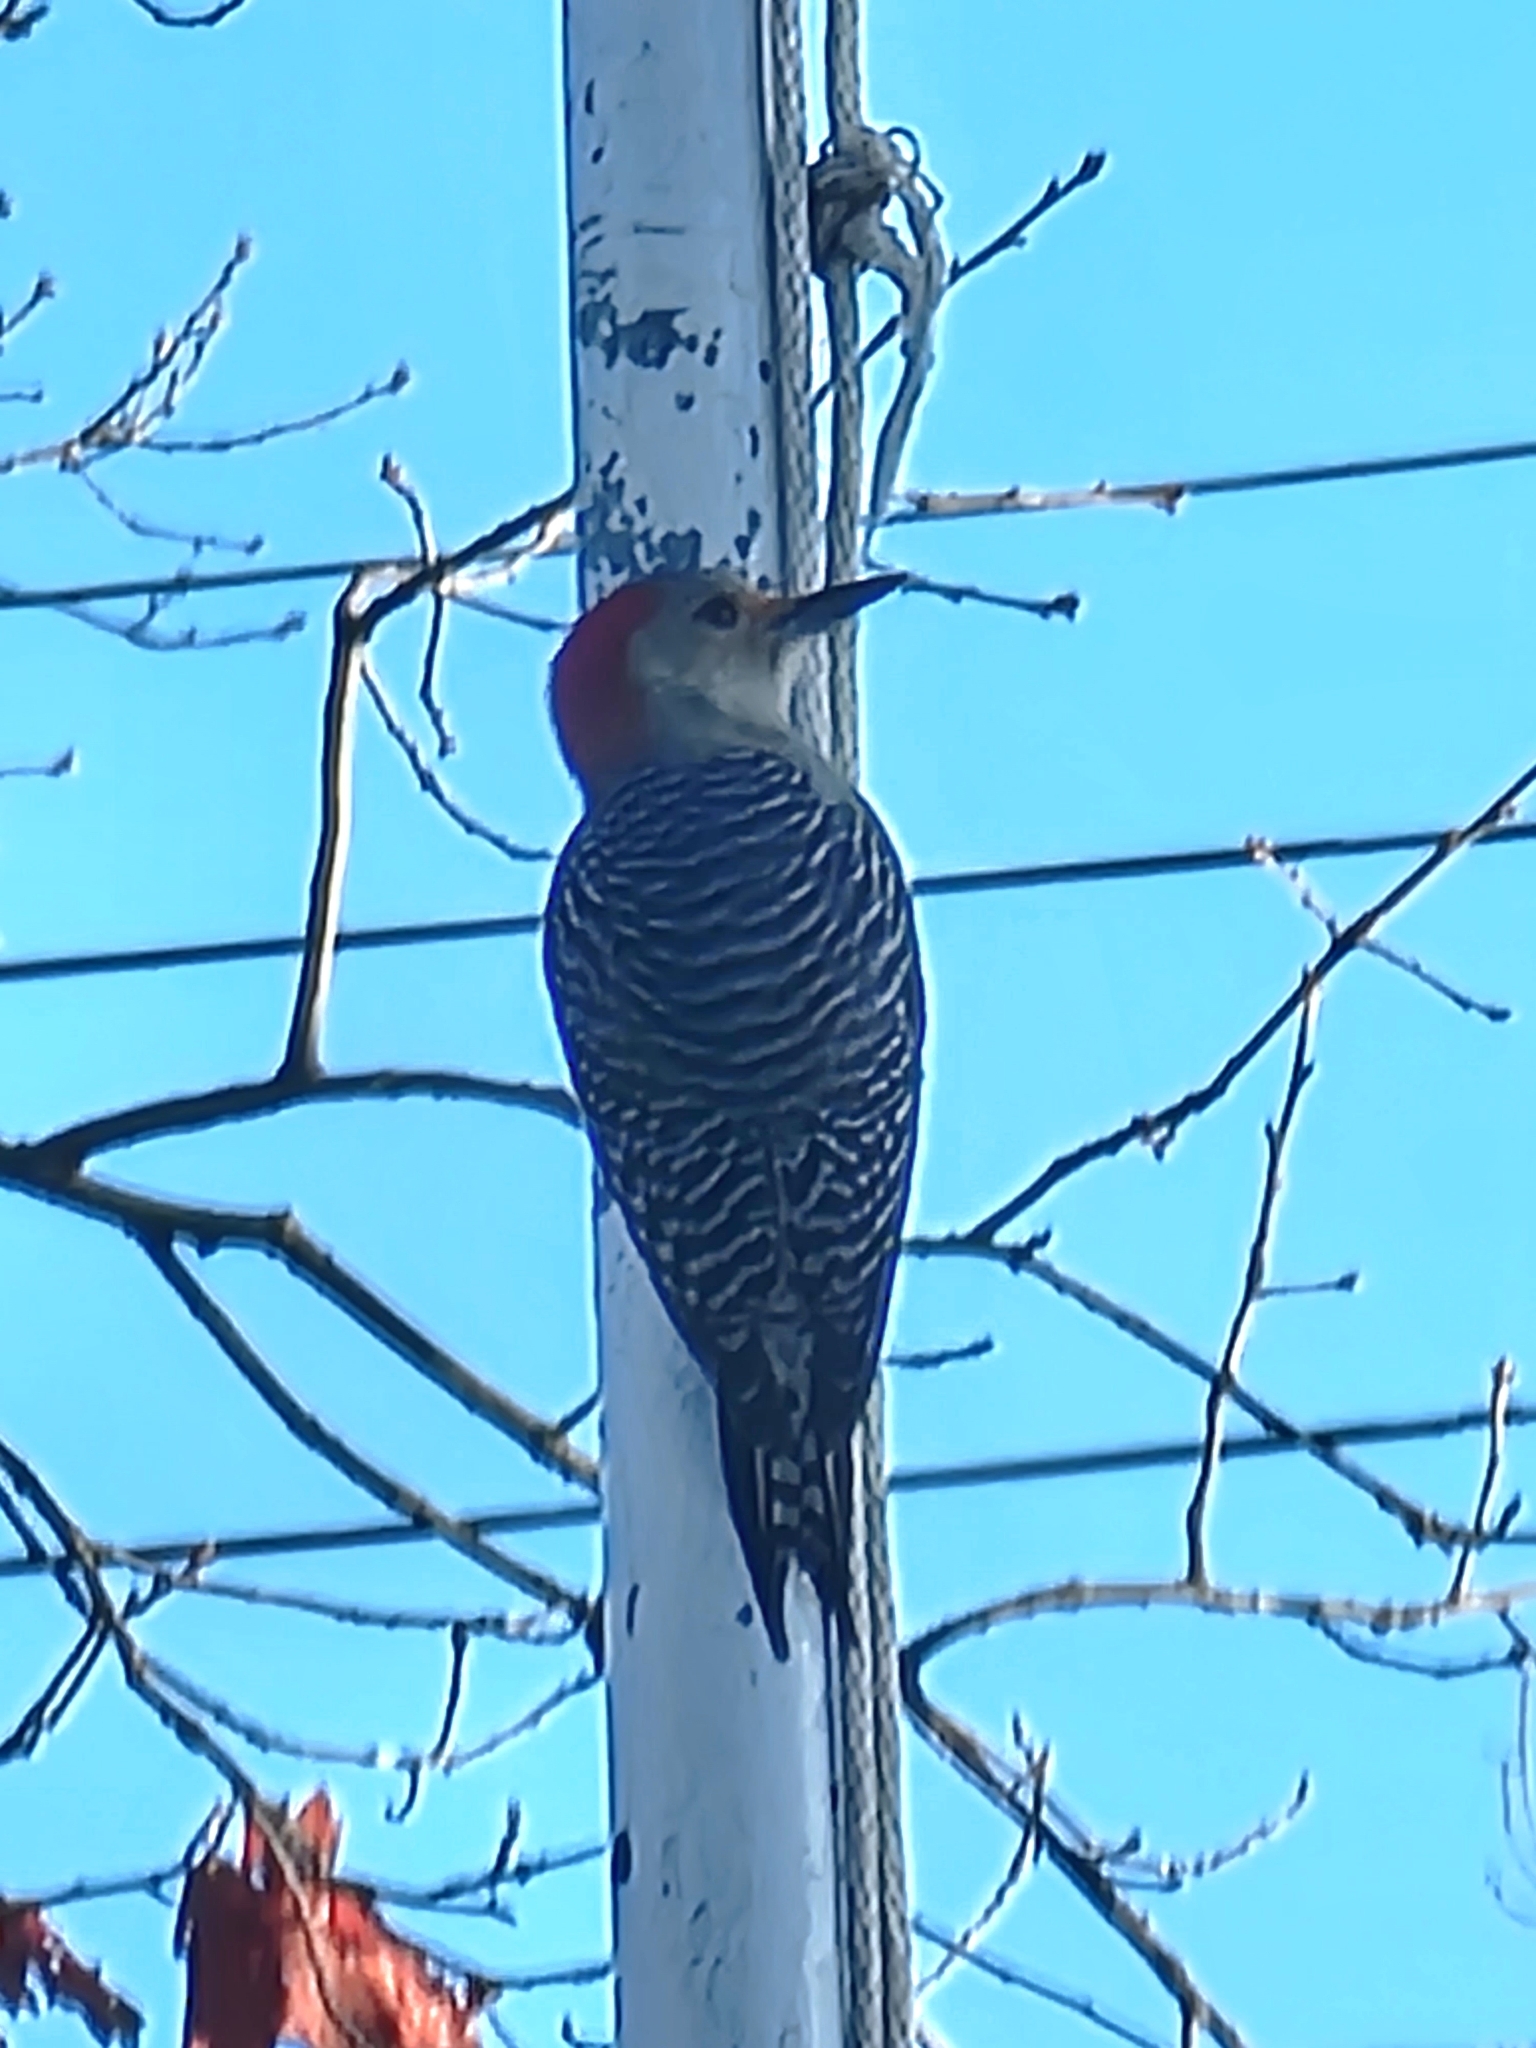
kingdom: Animalia
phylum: Chordata
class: Aves
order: Piciformes
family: Picidae
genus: Melanerpes
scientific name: Melanerpes carolinus
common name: Red-bellied woodpecker
